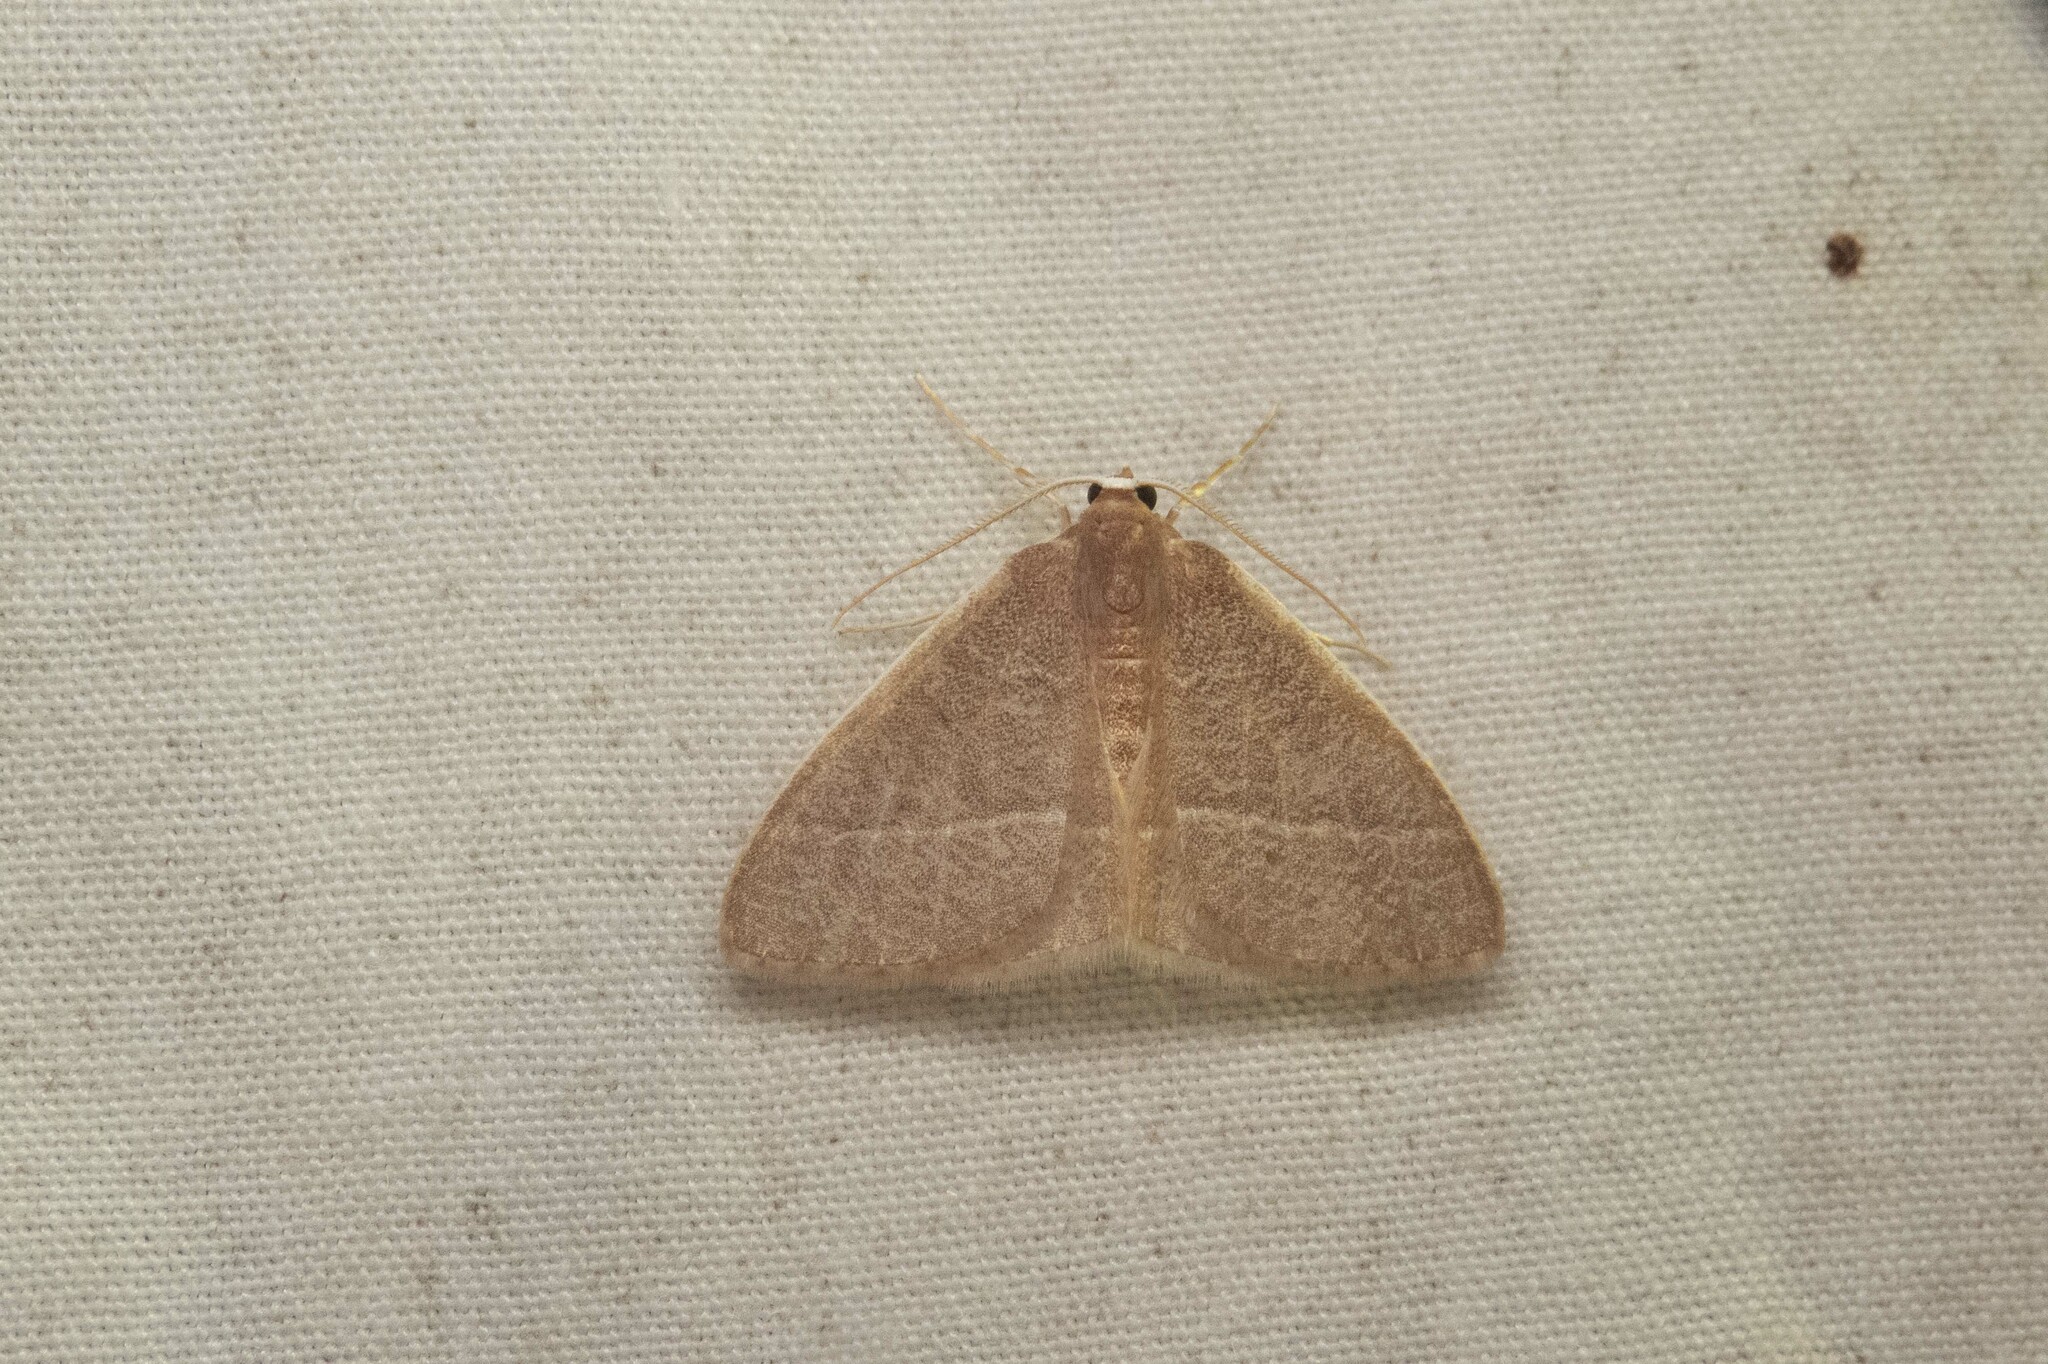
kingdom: Animalia
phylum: Arthropoda
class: Insecta
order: Lepidoptera
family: Geometridae
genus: Nemoria
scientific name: Nemoria bistriaria
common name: Red-fringed emerald
